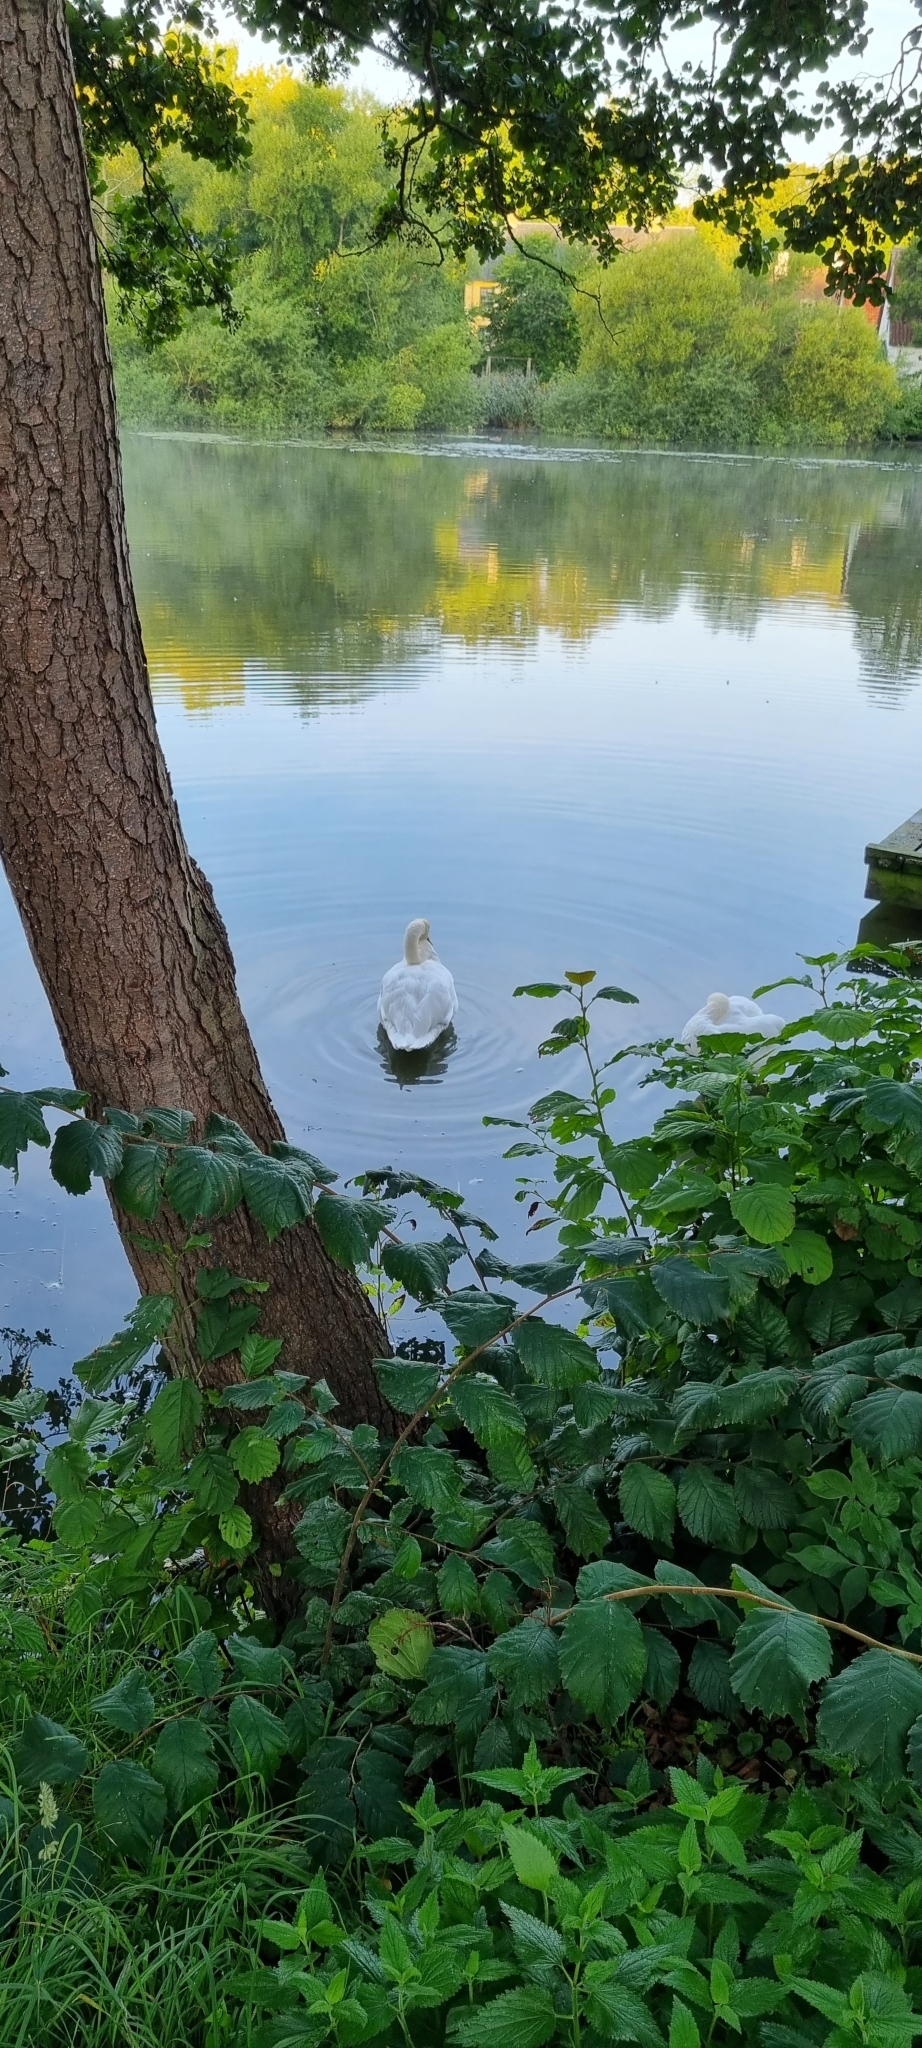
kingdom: Animalia
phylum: Chordata
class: Aves
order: Anseriformes
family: Anatidae
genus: Cygnus
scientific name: Cygnus olor
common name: Mute swan
